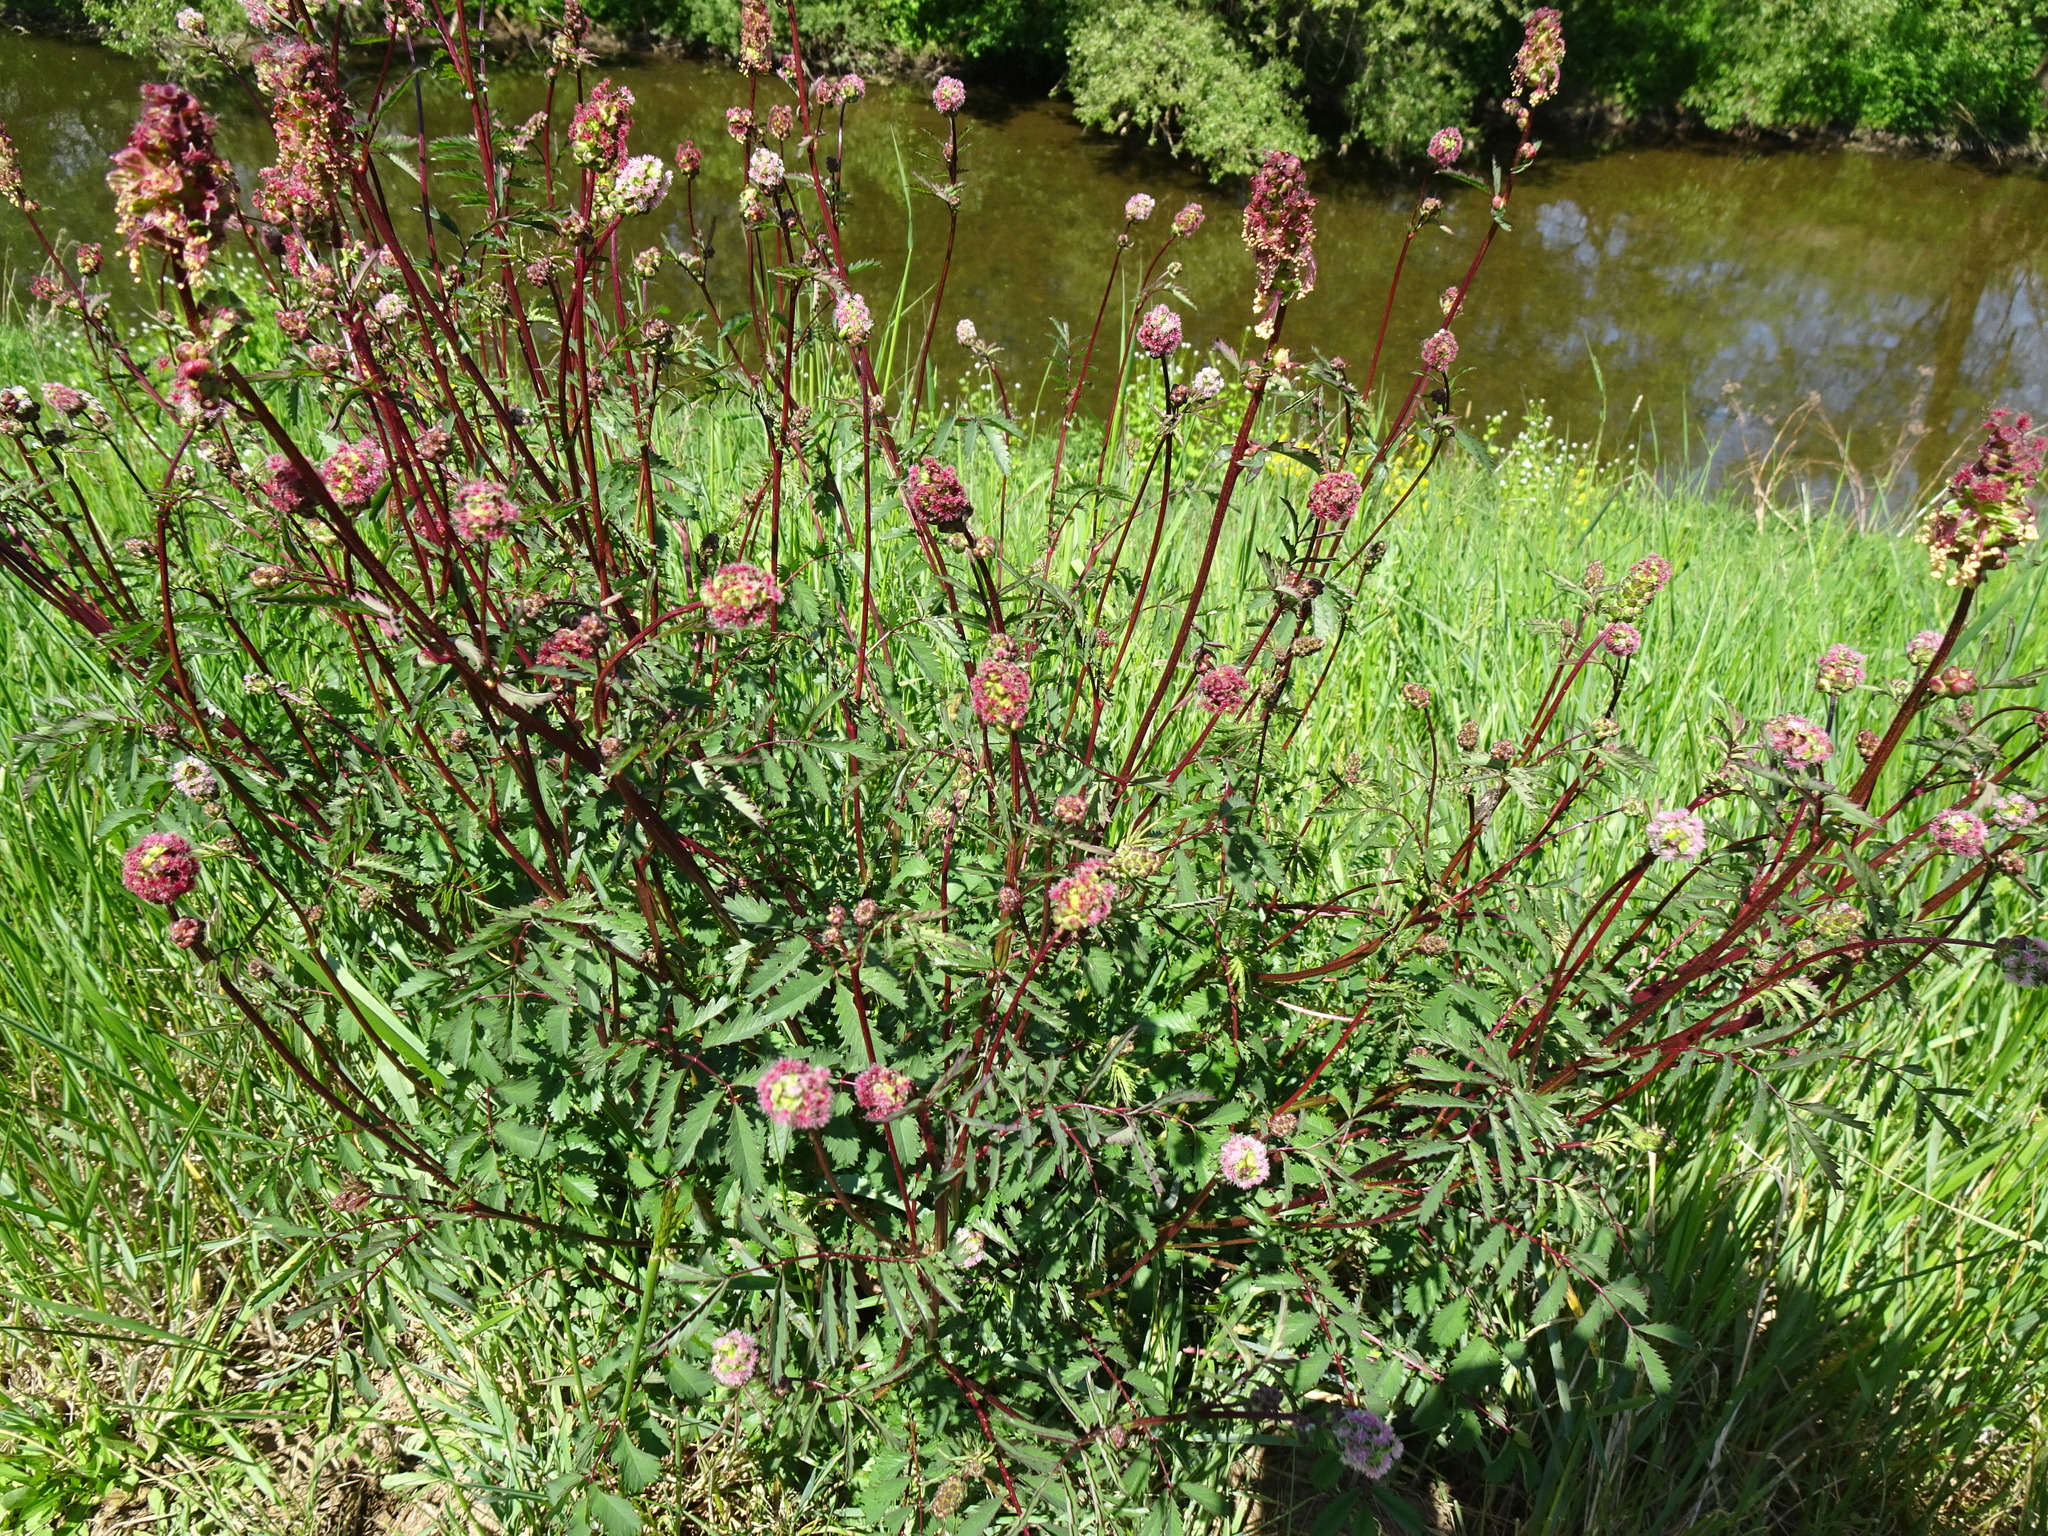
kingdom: Plantae
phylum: Tracheophyta
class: Magnoliopsida
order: Rosales
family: Rosaceae
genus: Poterium
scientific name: Poterium sanguisorba
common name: Salad burnet
